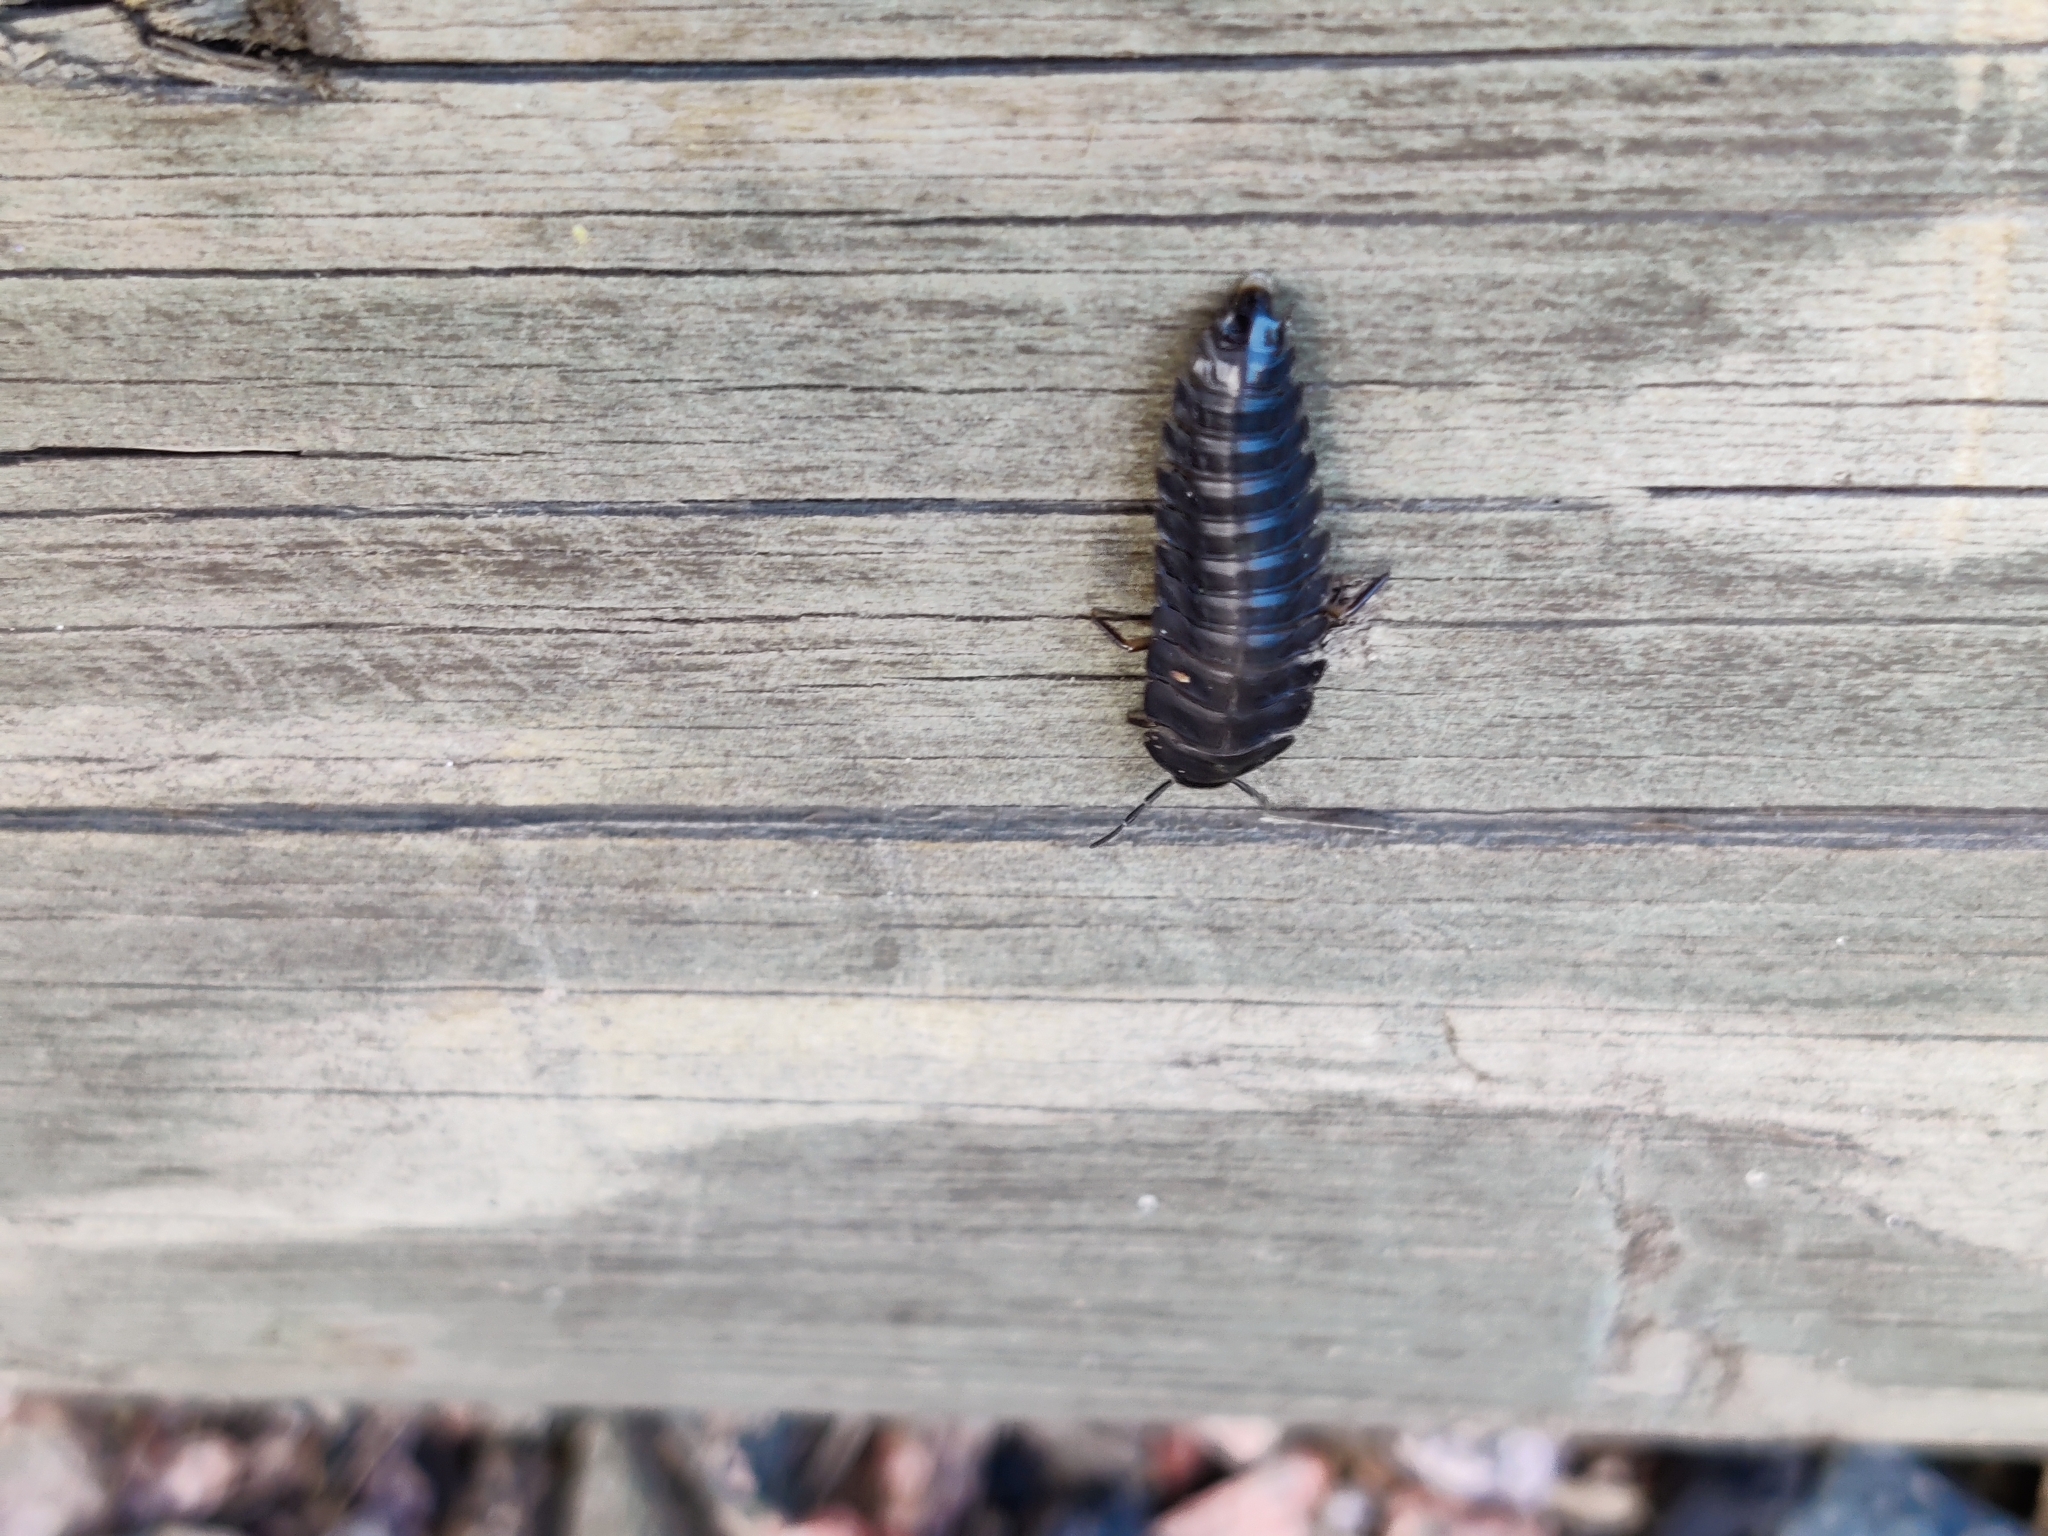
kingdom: Animalia
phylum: Arthropoda
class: Insecta
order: Coleoptera
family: Staphylinidae
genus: Silpha
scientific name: Silpha carinata
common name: Silphid beetle
